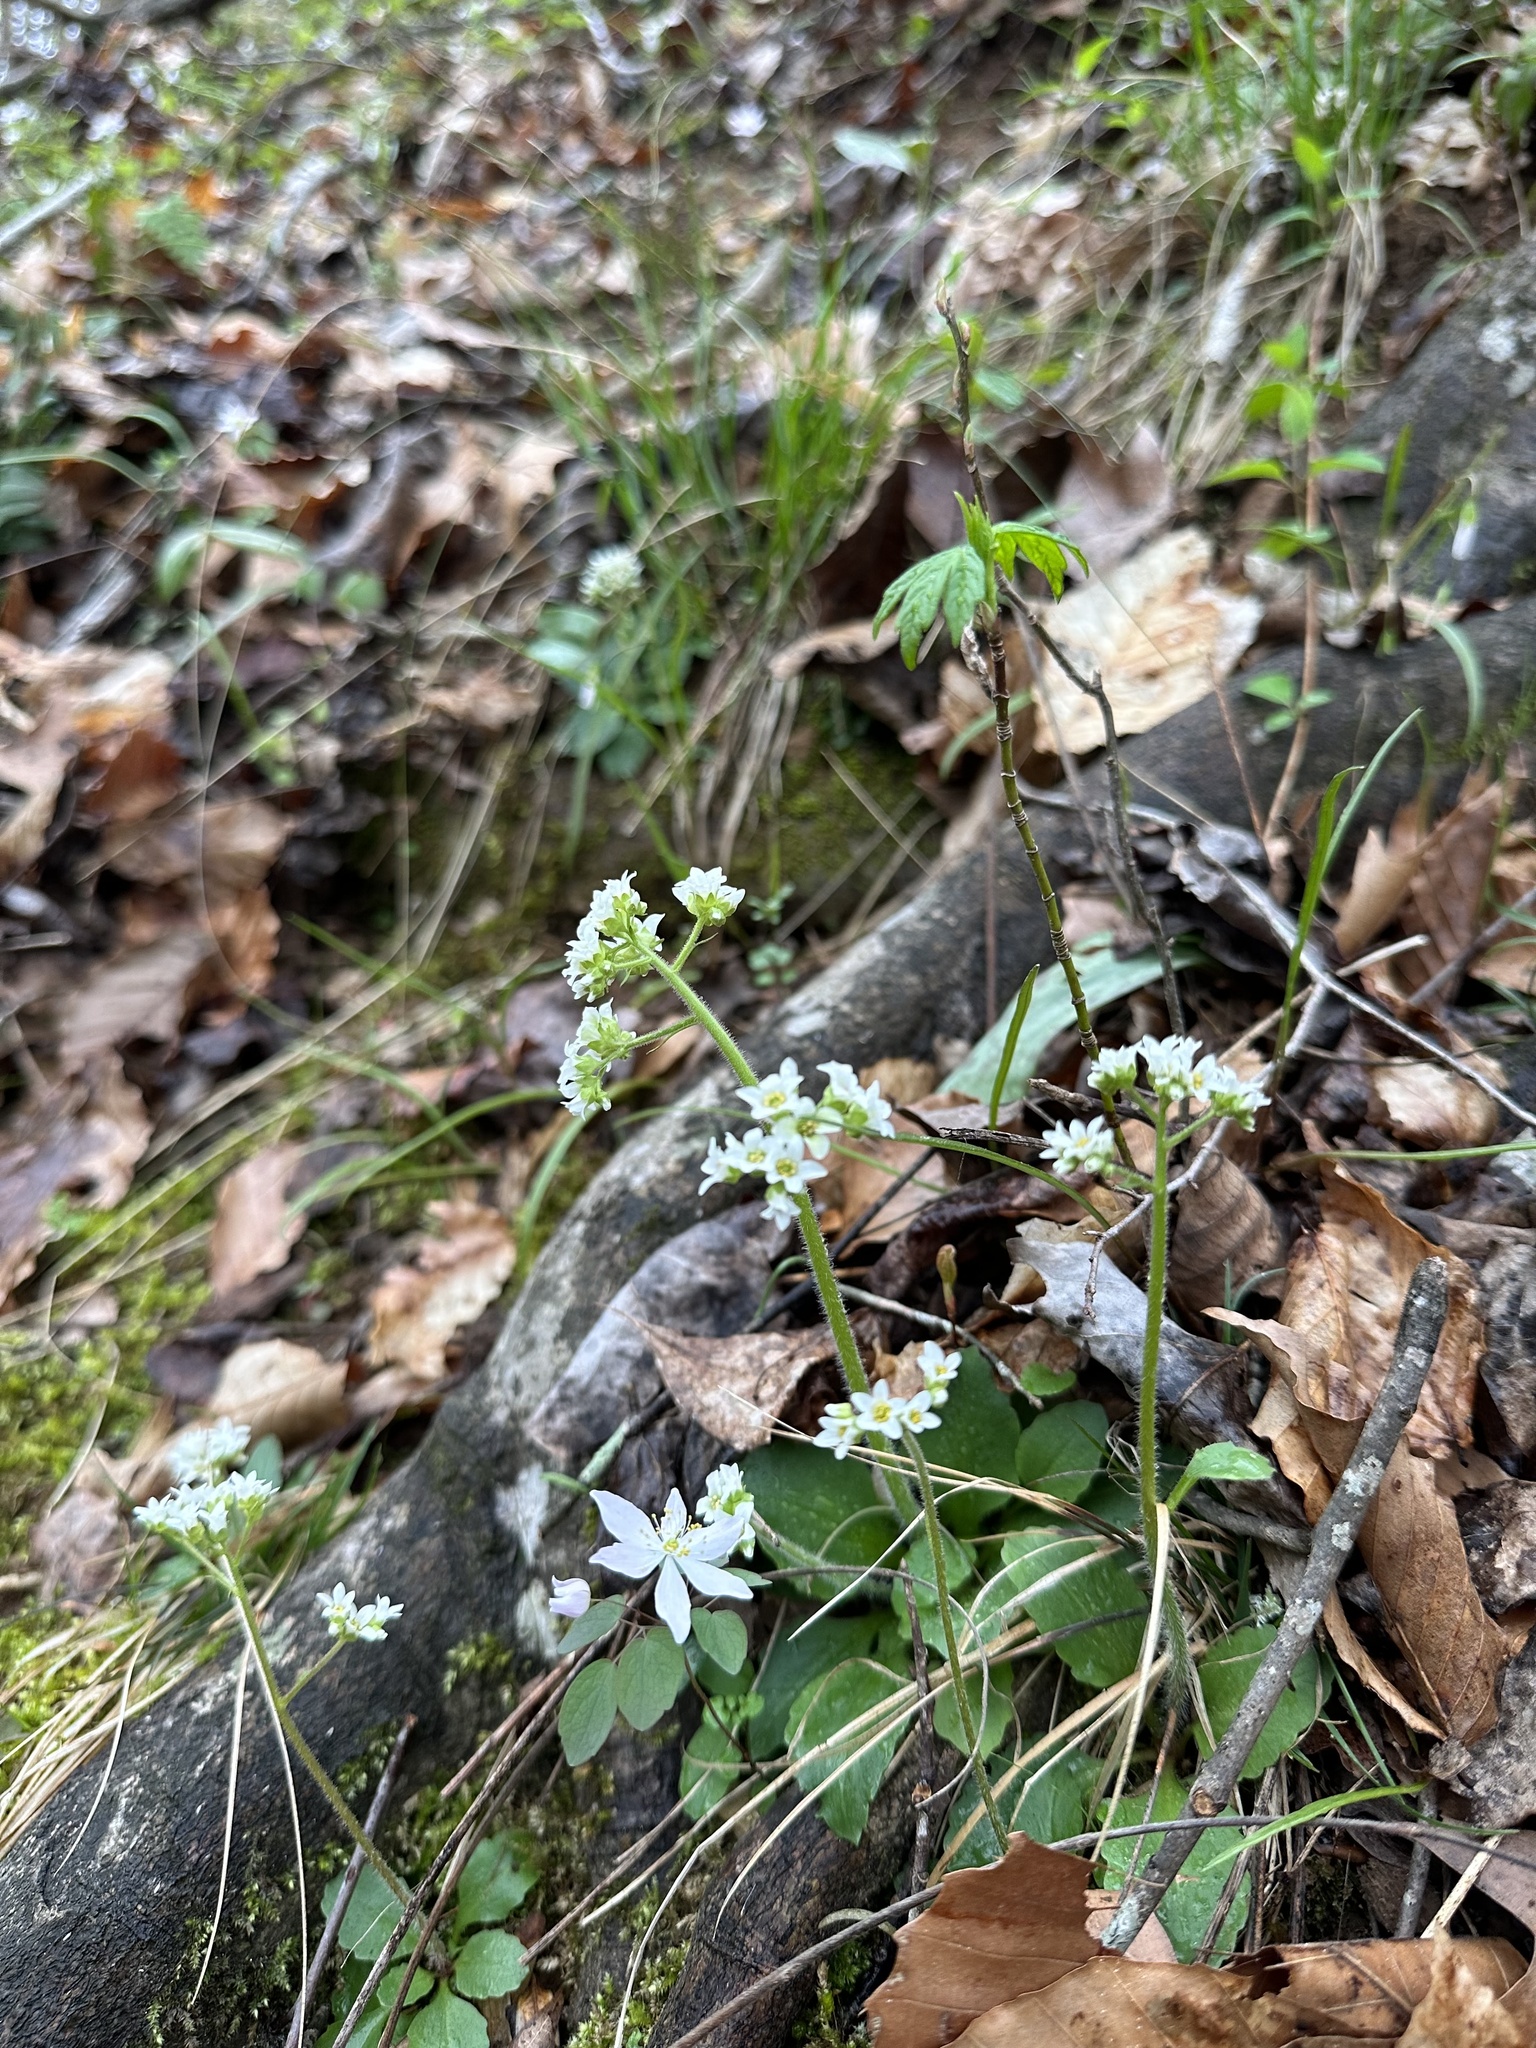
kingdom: Plantae
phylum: Tracheophyta
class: Magnoliopsida
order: Saxifragales
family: Saxifragaceae
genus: Micranthes
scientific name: Micranthes virginiensis
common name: Early saxifrage
